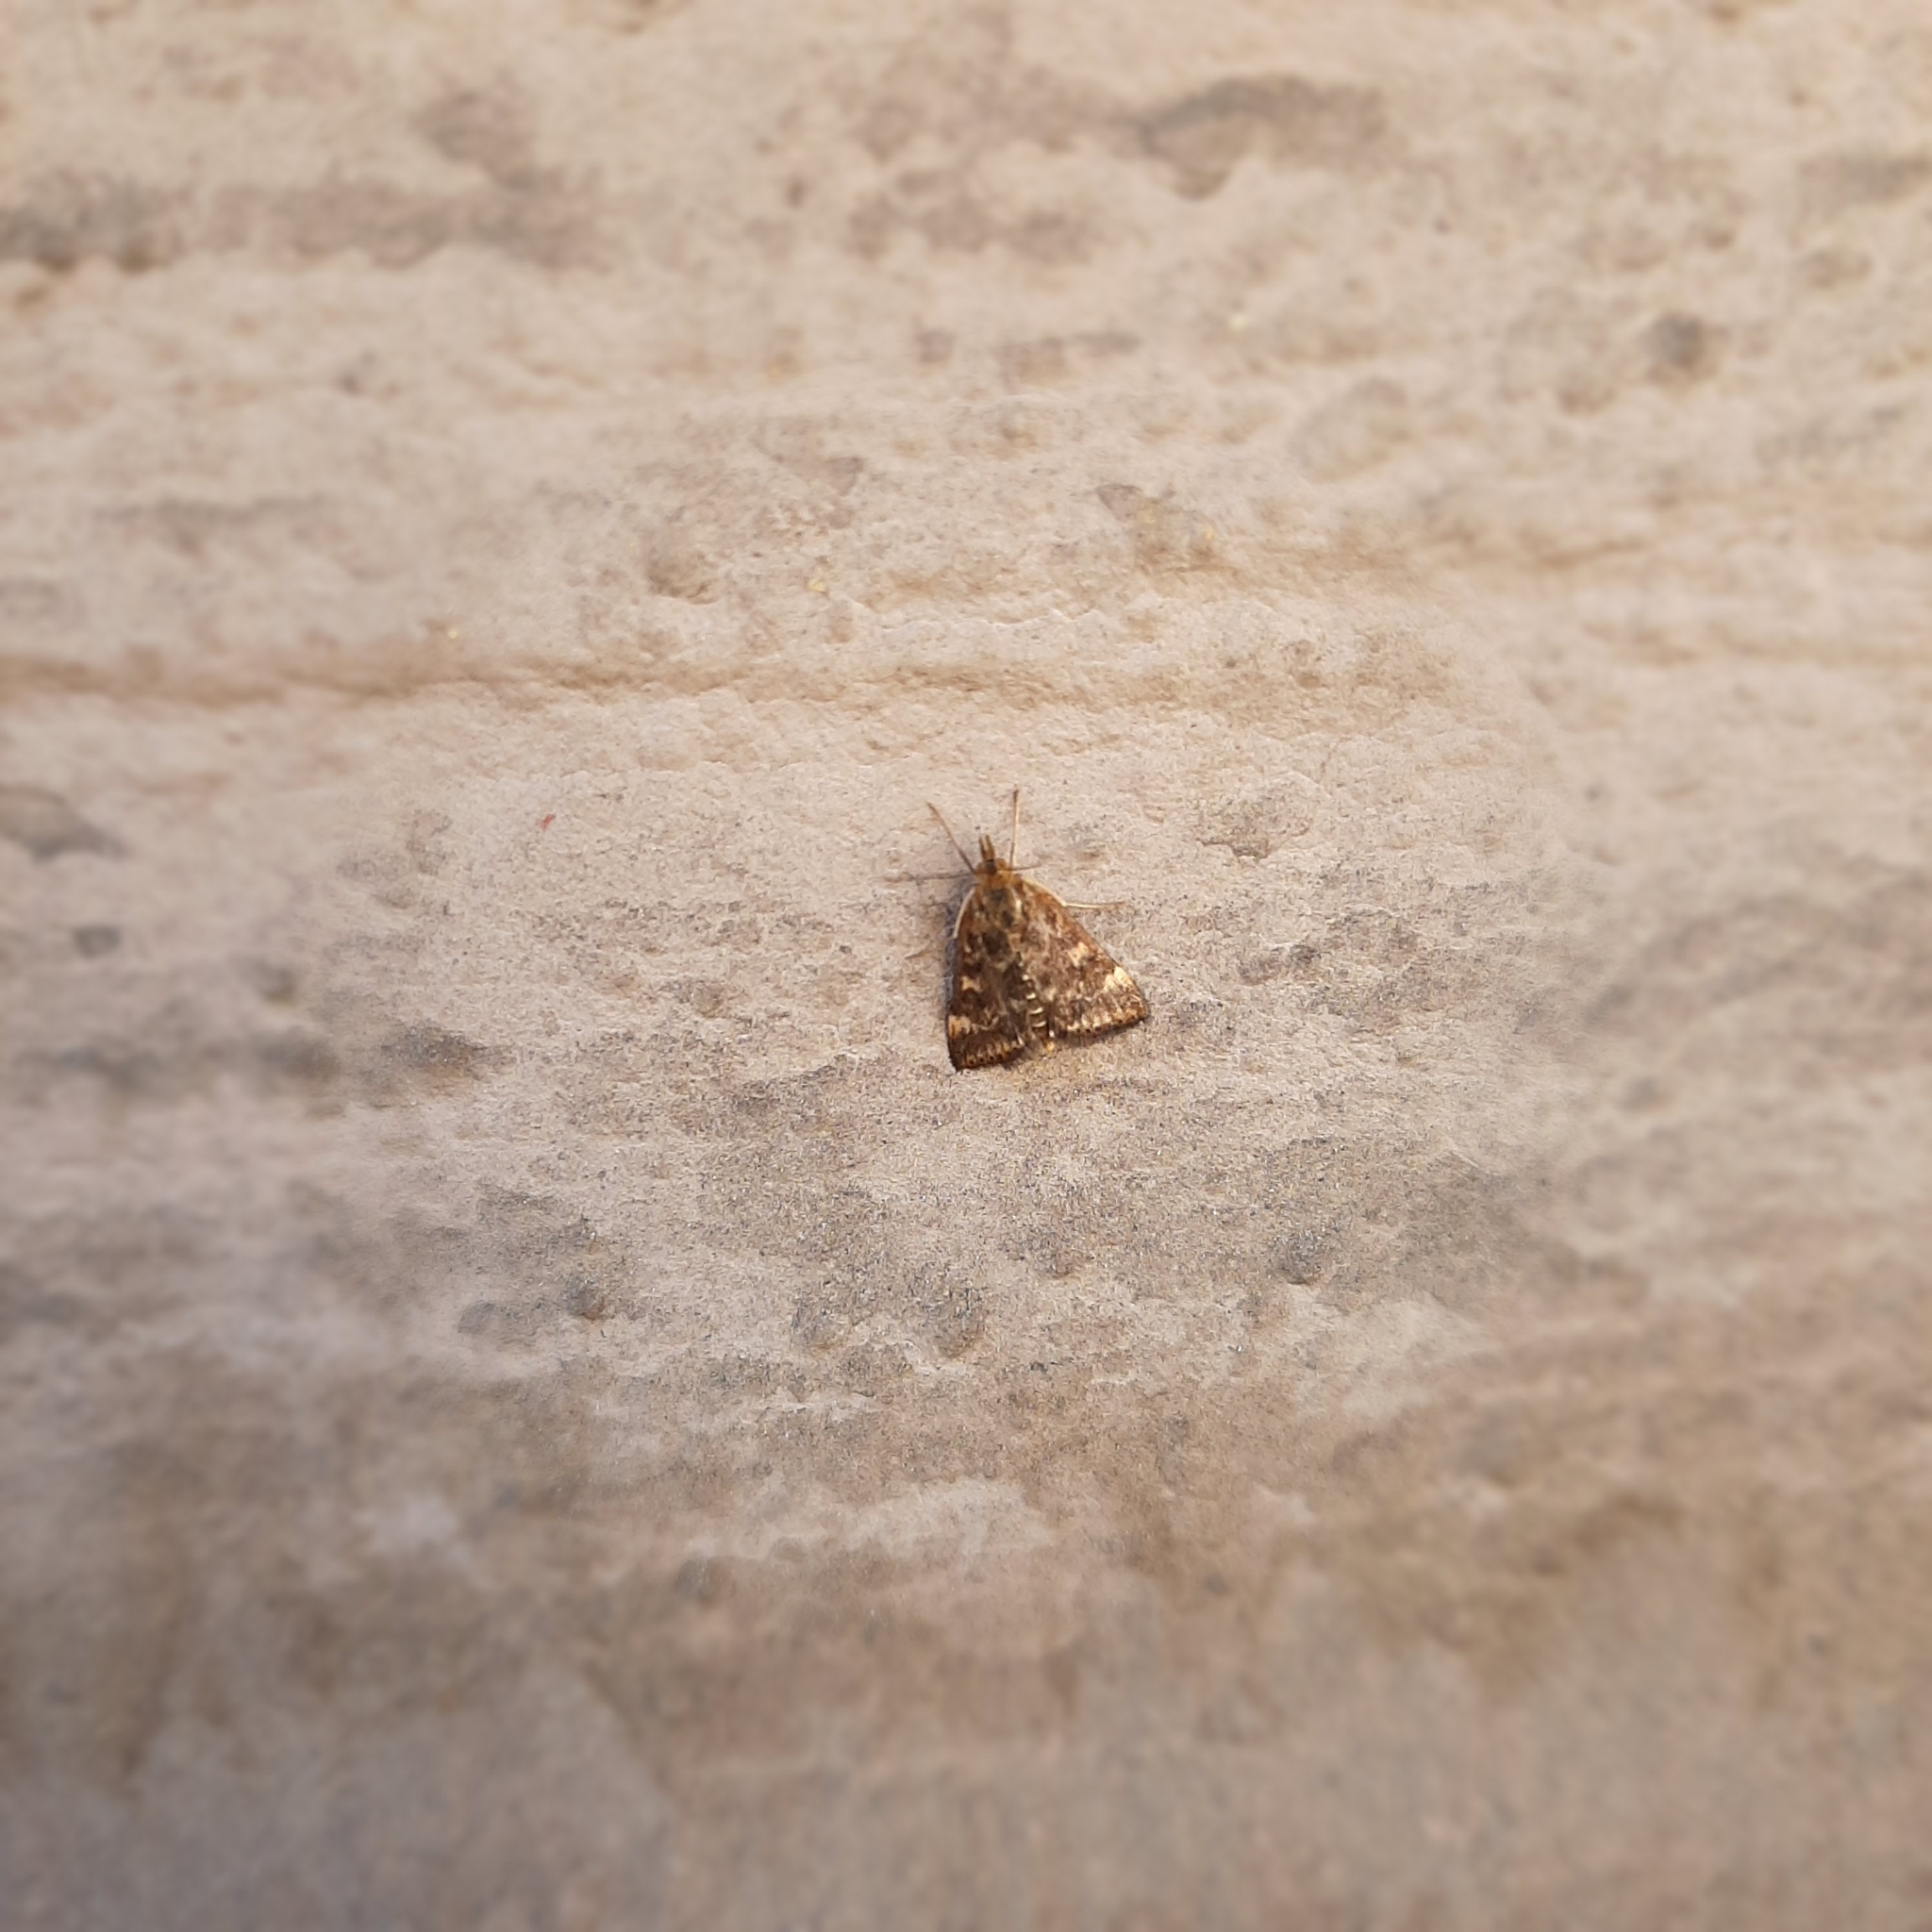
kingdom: Animalia
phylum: Arthropoda
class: Insecta
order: Lepidoptera
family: Crambidae
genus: Pyrausta
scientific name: Pyrausta despicata
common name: Straw-barred pearl
